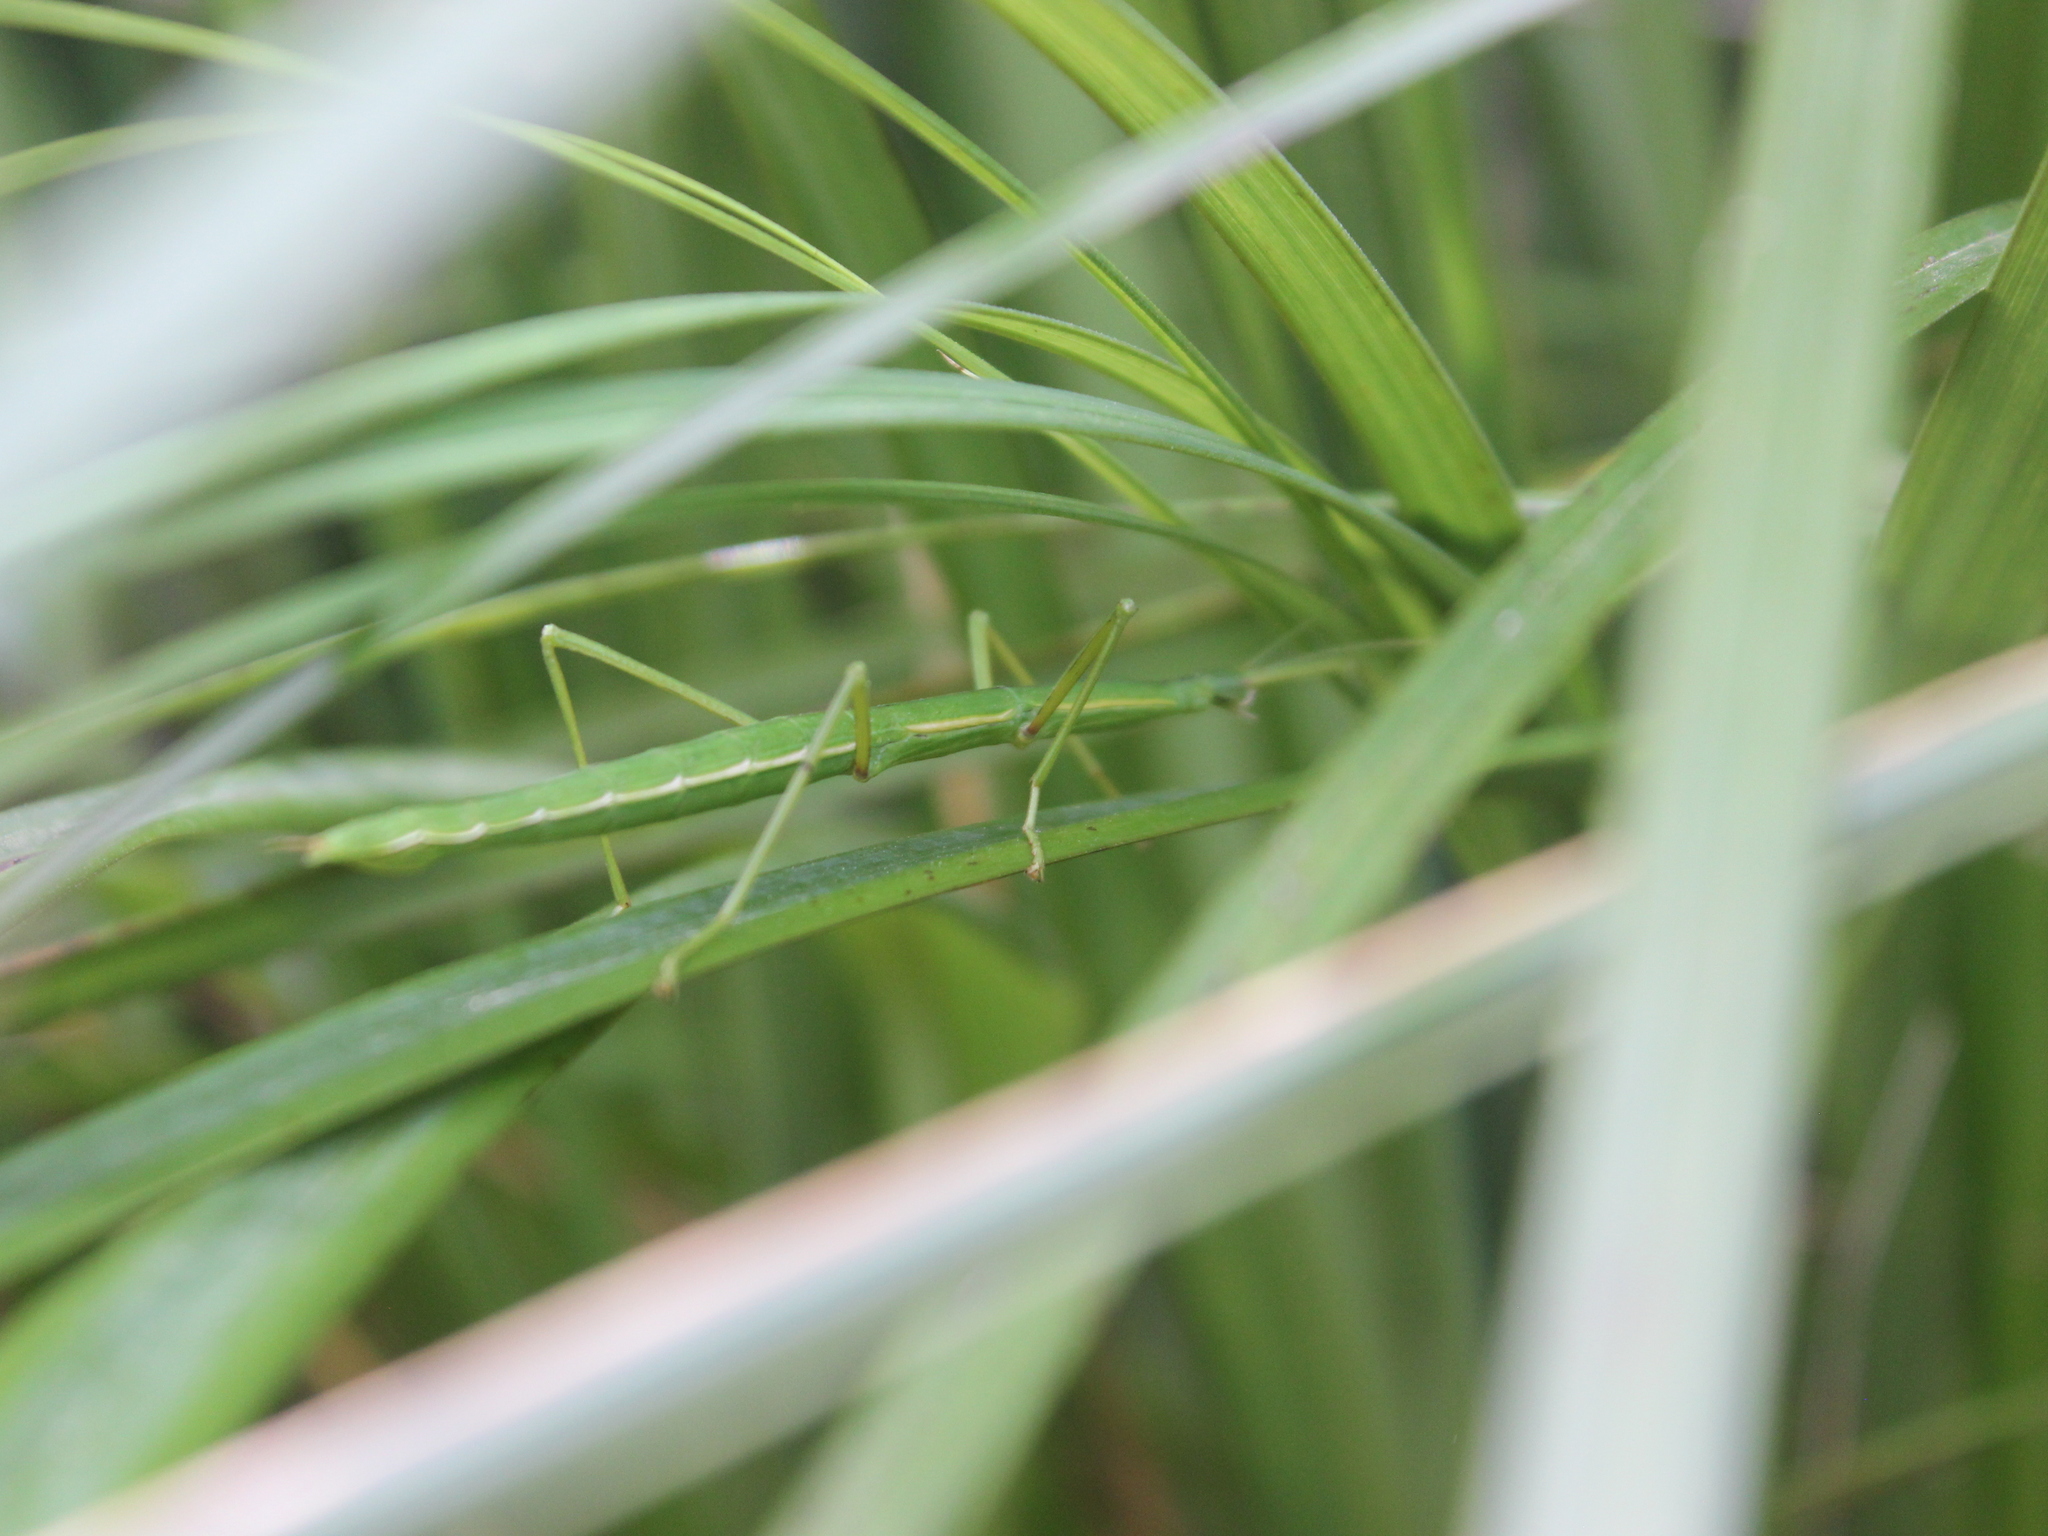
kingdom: Animalia
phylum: Arthropoda
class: Insecta
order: Phasmida
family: Phasmatidae
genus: Clitarchus
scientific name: Clitarchus hookeri
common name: Smooth stick insect
